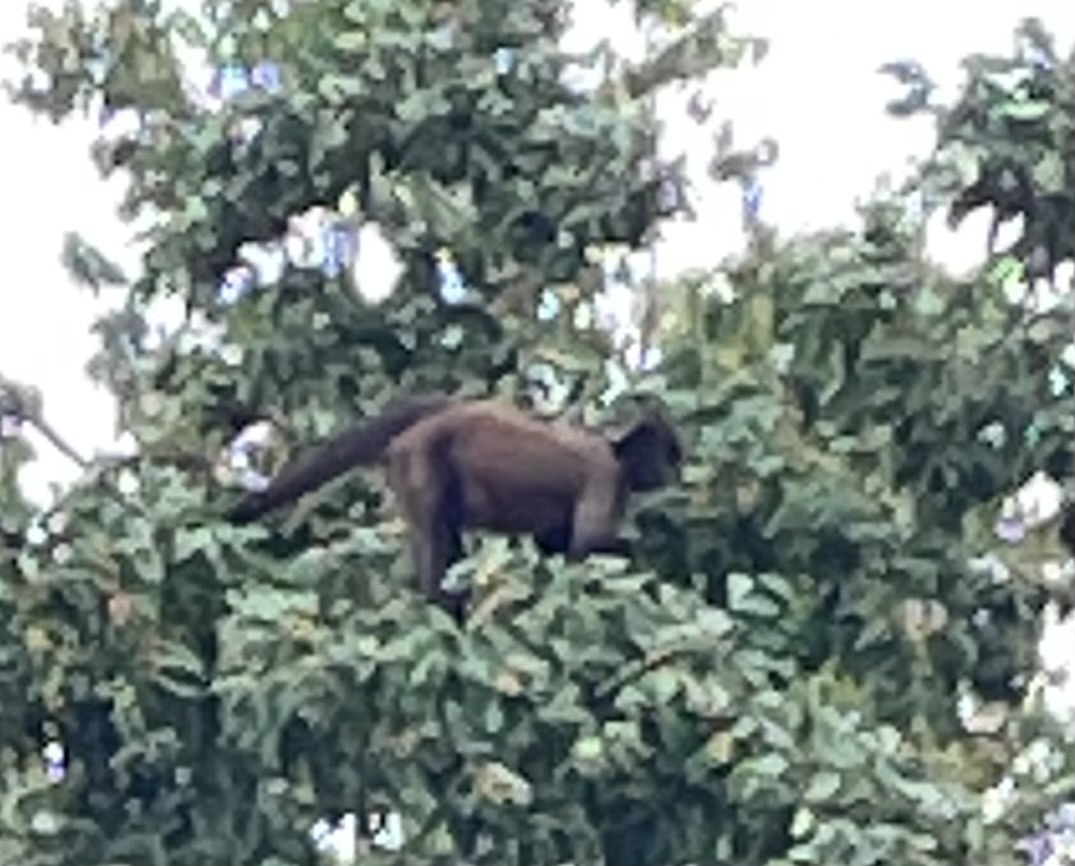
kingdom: Animalia
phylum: Chordata
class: Mammalia
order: Primates
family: Atelidae
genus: Alouatta
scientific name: Alouatta palliata
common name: Mantled howler
